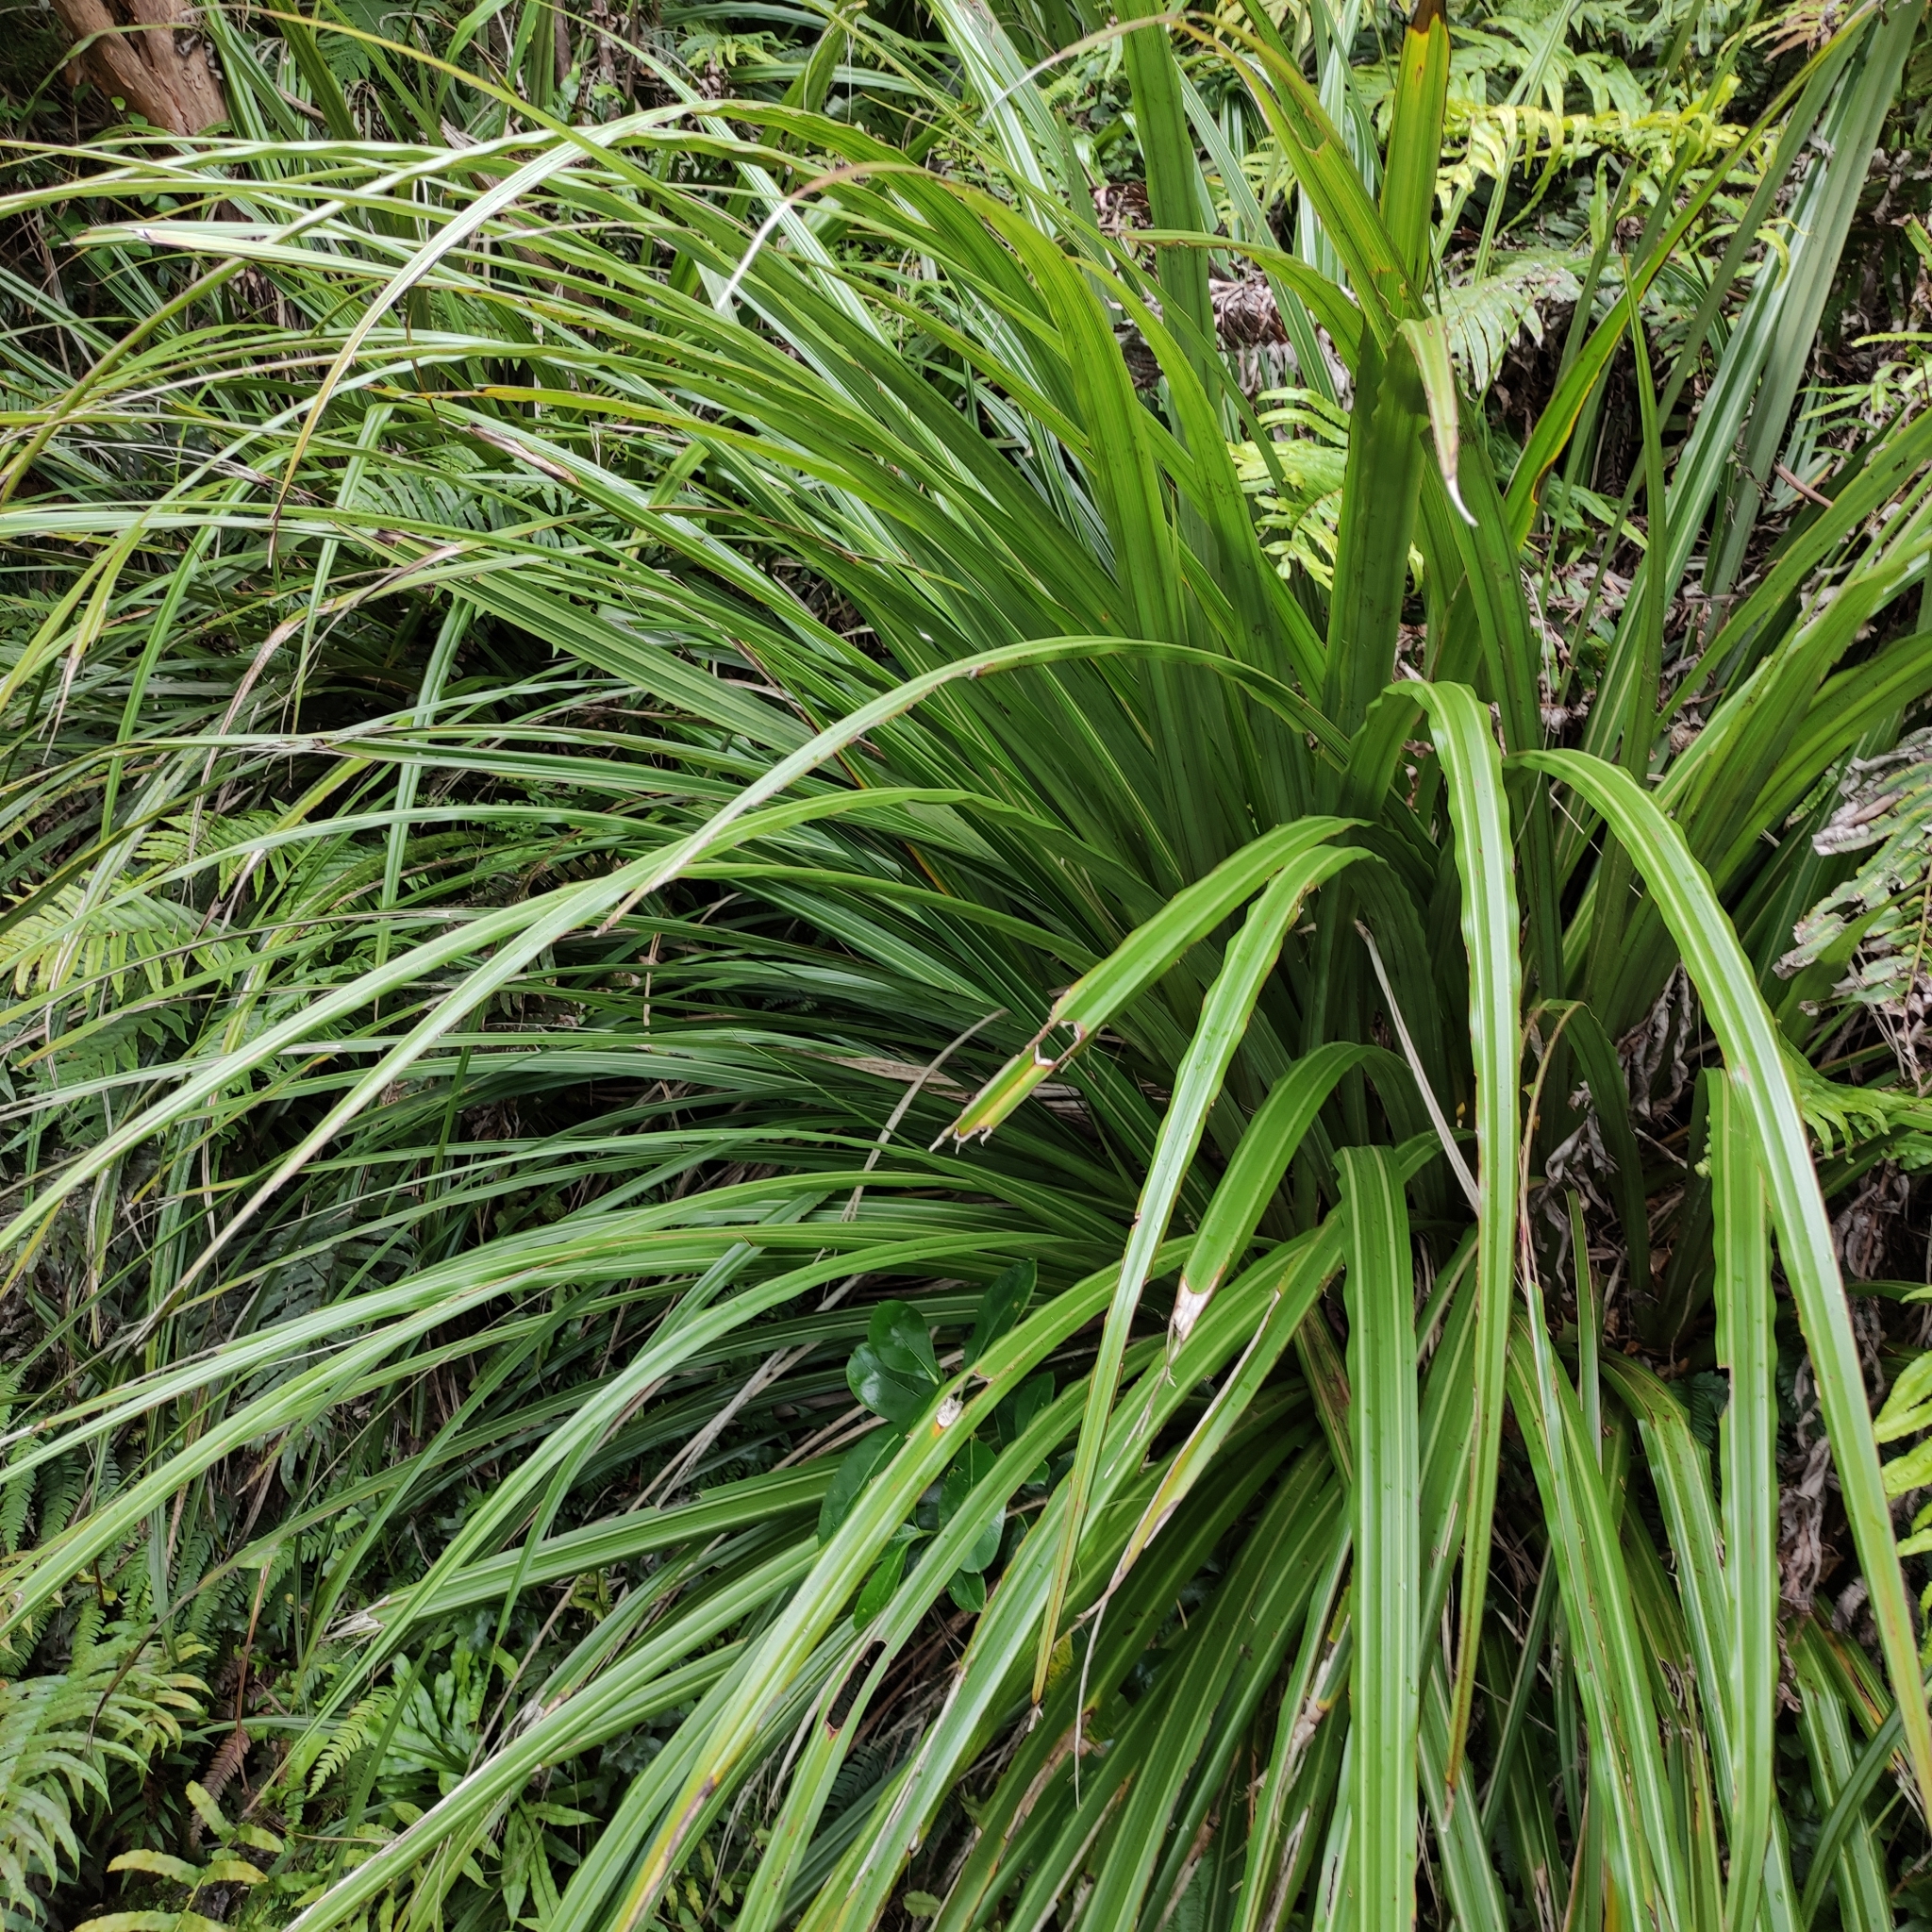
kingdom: Plantae
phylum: Tracheophyta
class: Liliopsida
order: Asparagales
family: Asteliaceae
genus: Astelia
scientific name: Astelia fragrans
